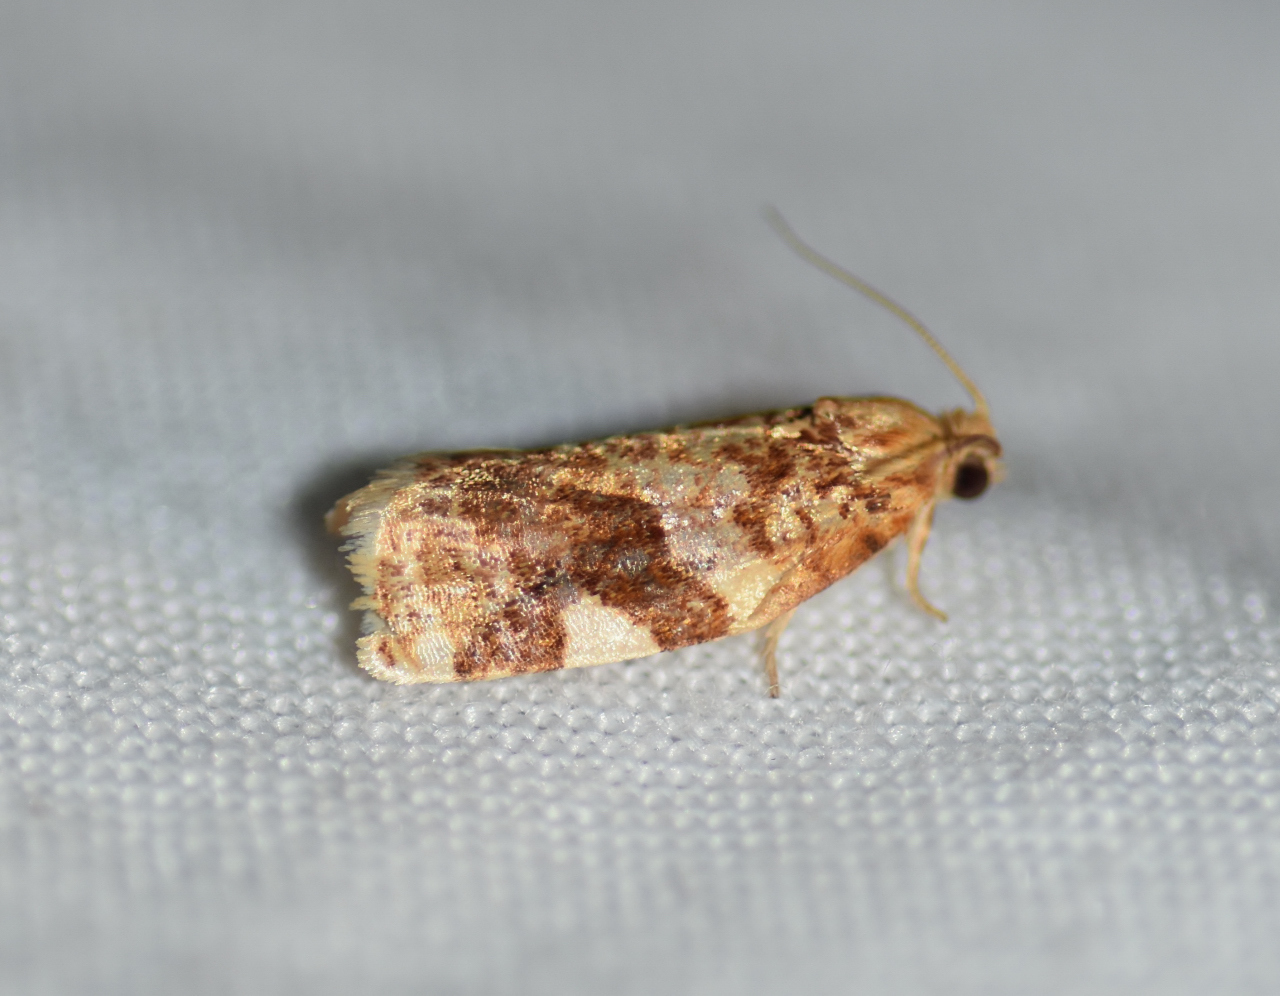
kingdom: Animalia
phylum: Arthropoda
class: Insecta
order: Lepidoptera
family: Tortricidae
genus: Archips
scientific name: Archips argyrospila
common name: Fruit-tree leafroller moth
